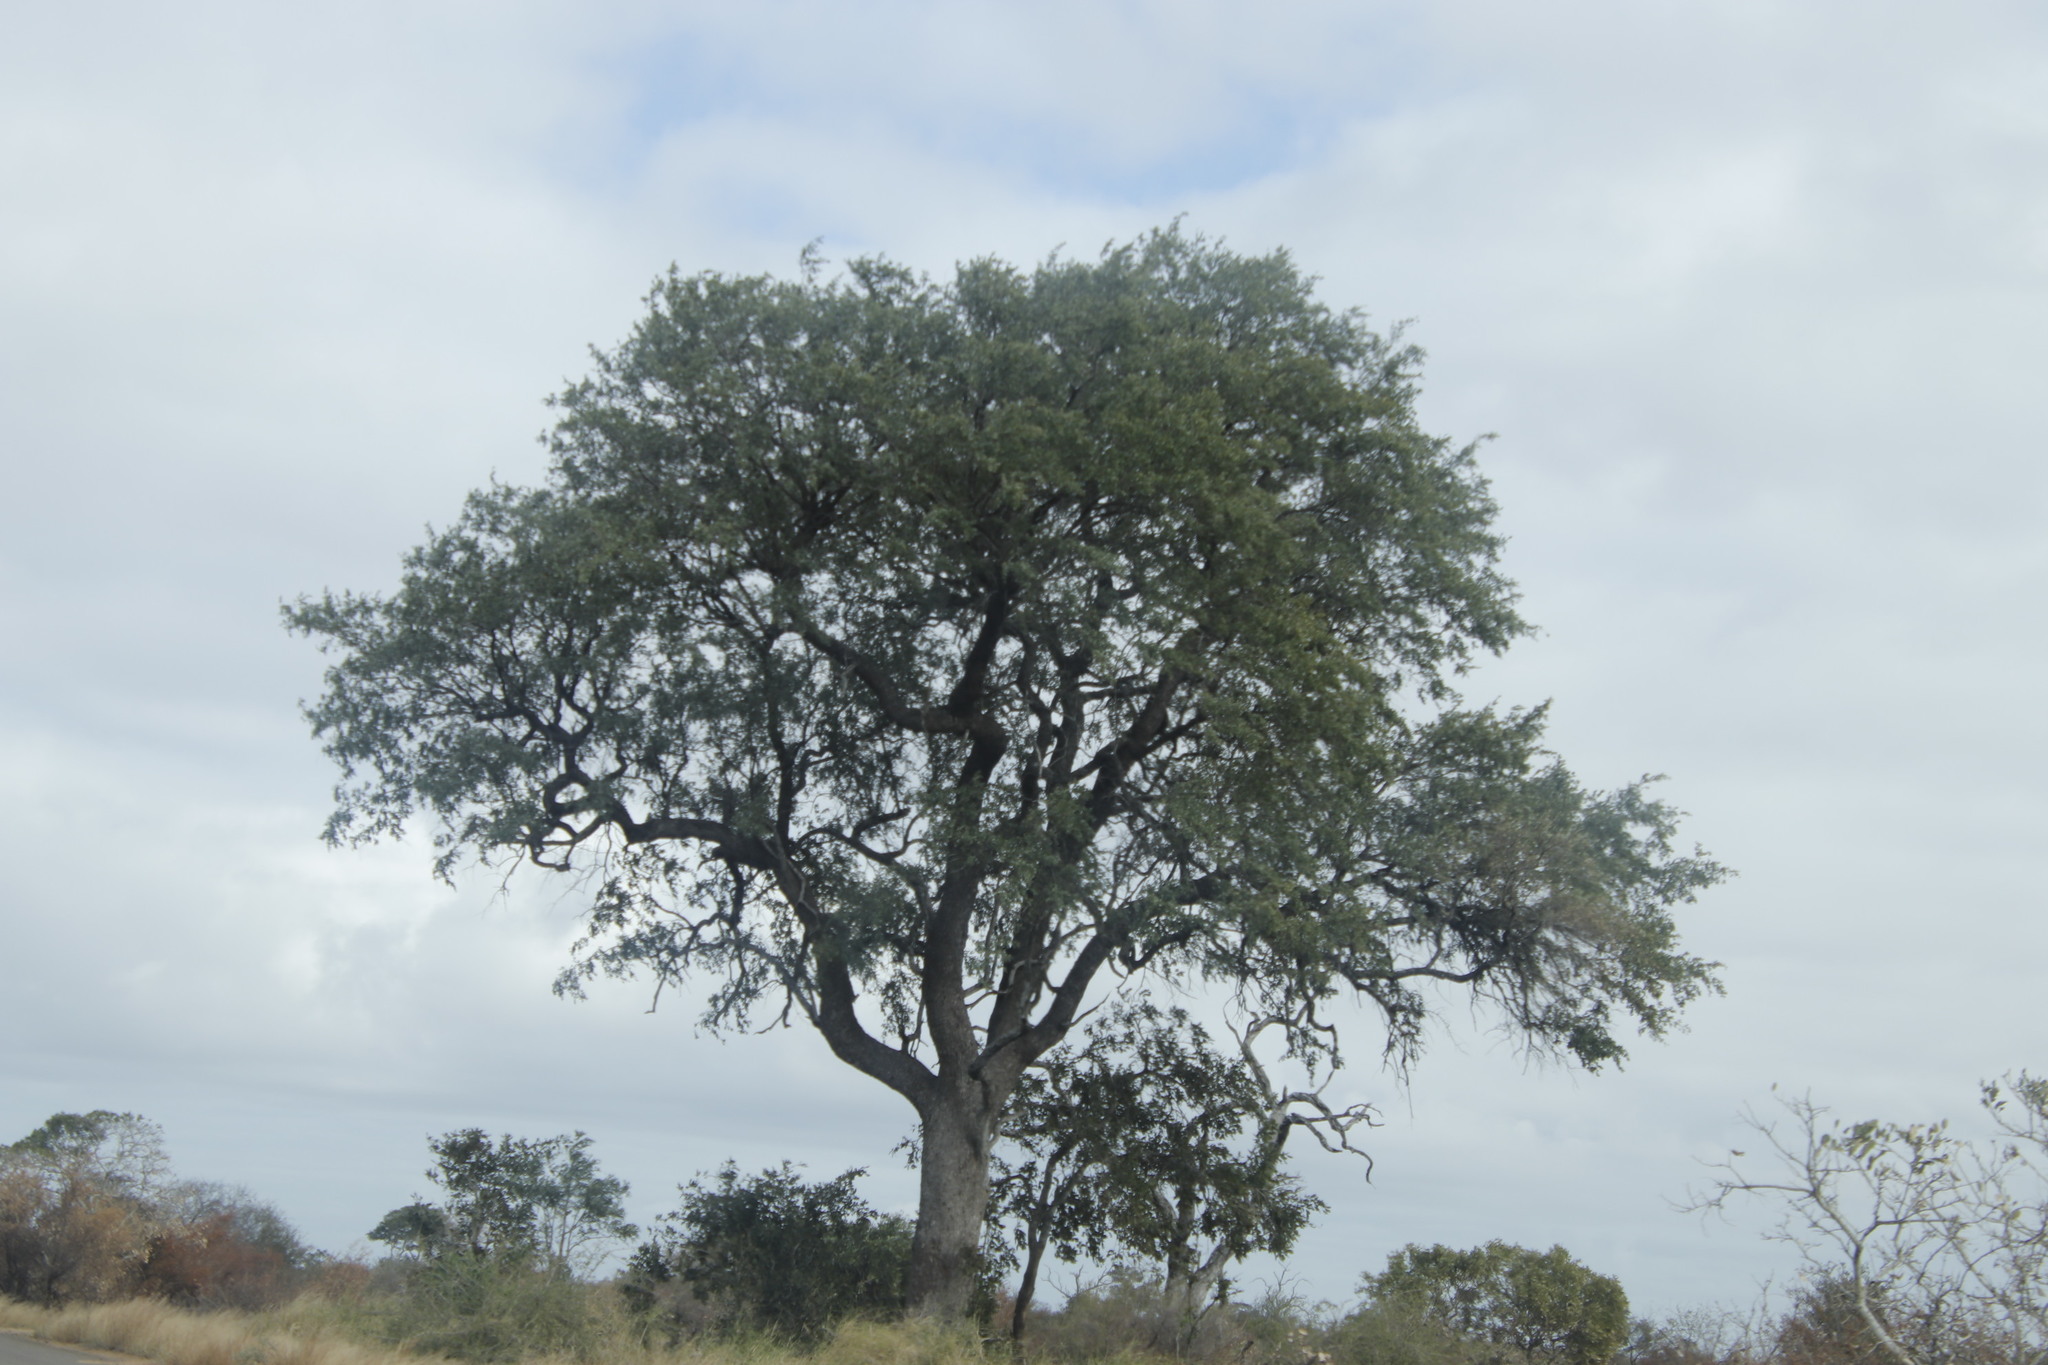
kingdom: Plantae
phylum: Tracheophyta
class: Magnoliopsida
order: Myrtales
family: Combretaceae
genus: Combretum
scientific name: Combretum imberbe
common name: Leadwood
